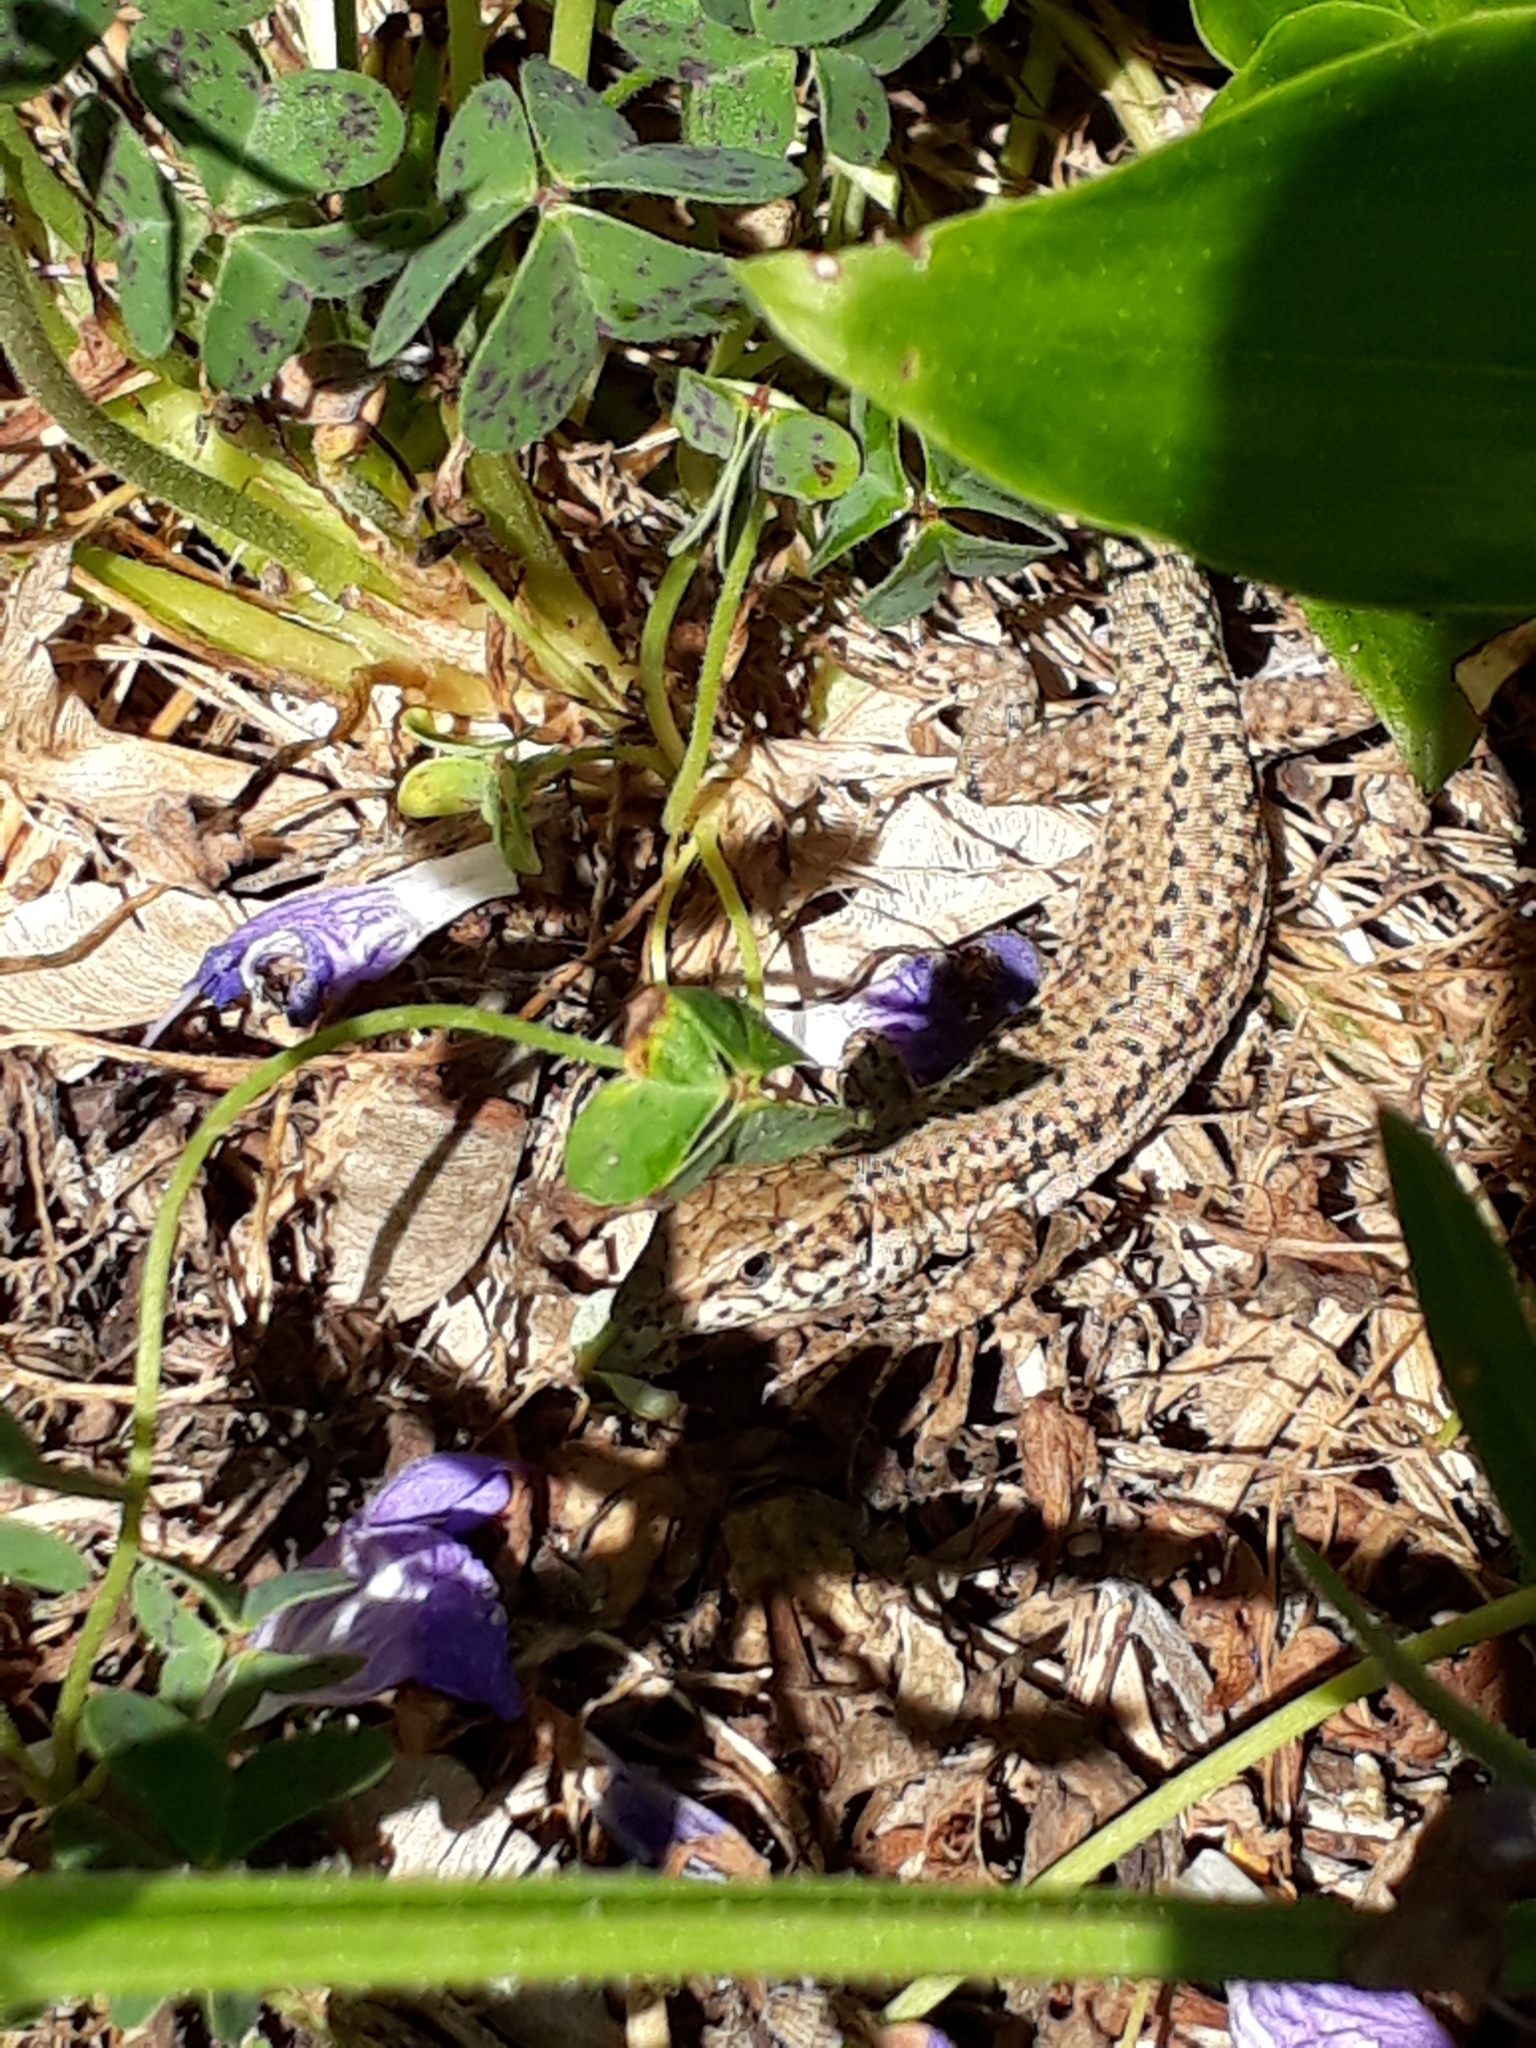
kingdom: Animalia
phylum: Chordata
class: Squamata
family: Lacertidae
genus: Podarcis
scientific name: Podarcis liolepis
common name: Catalonian wall lizard
